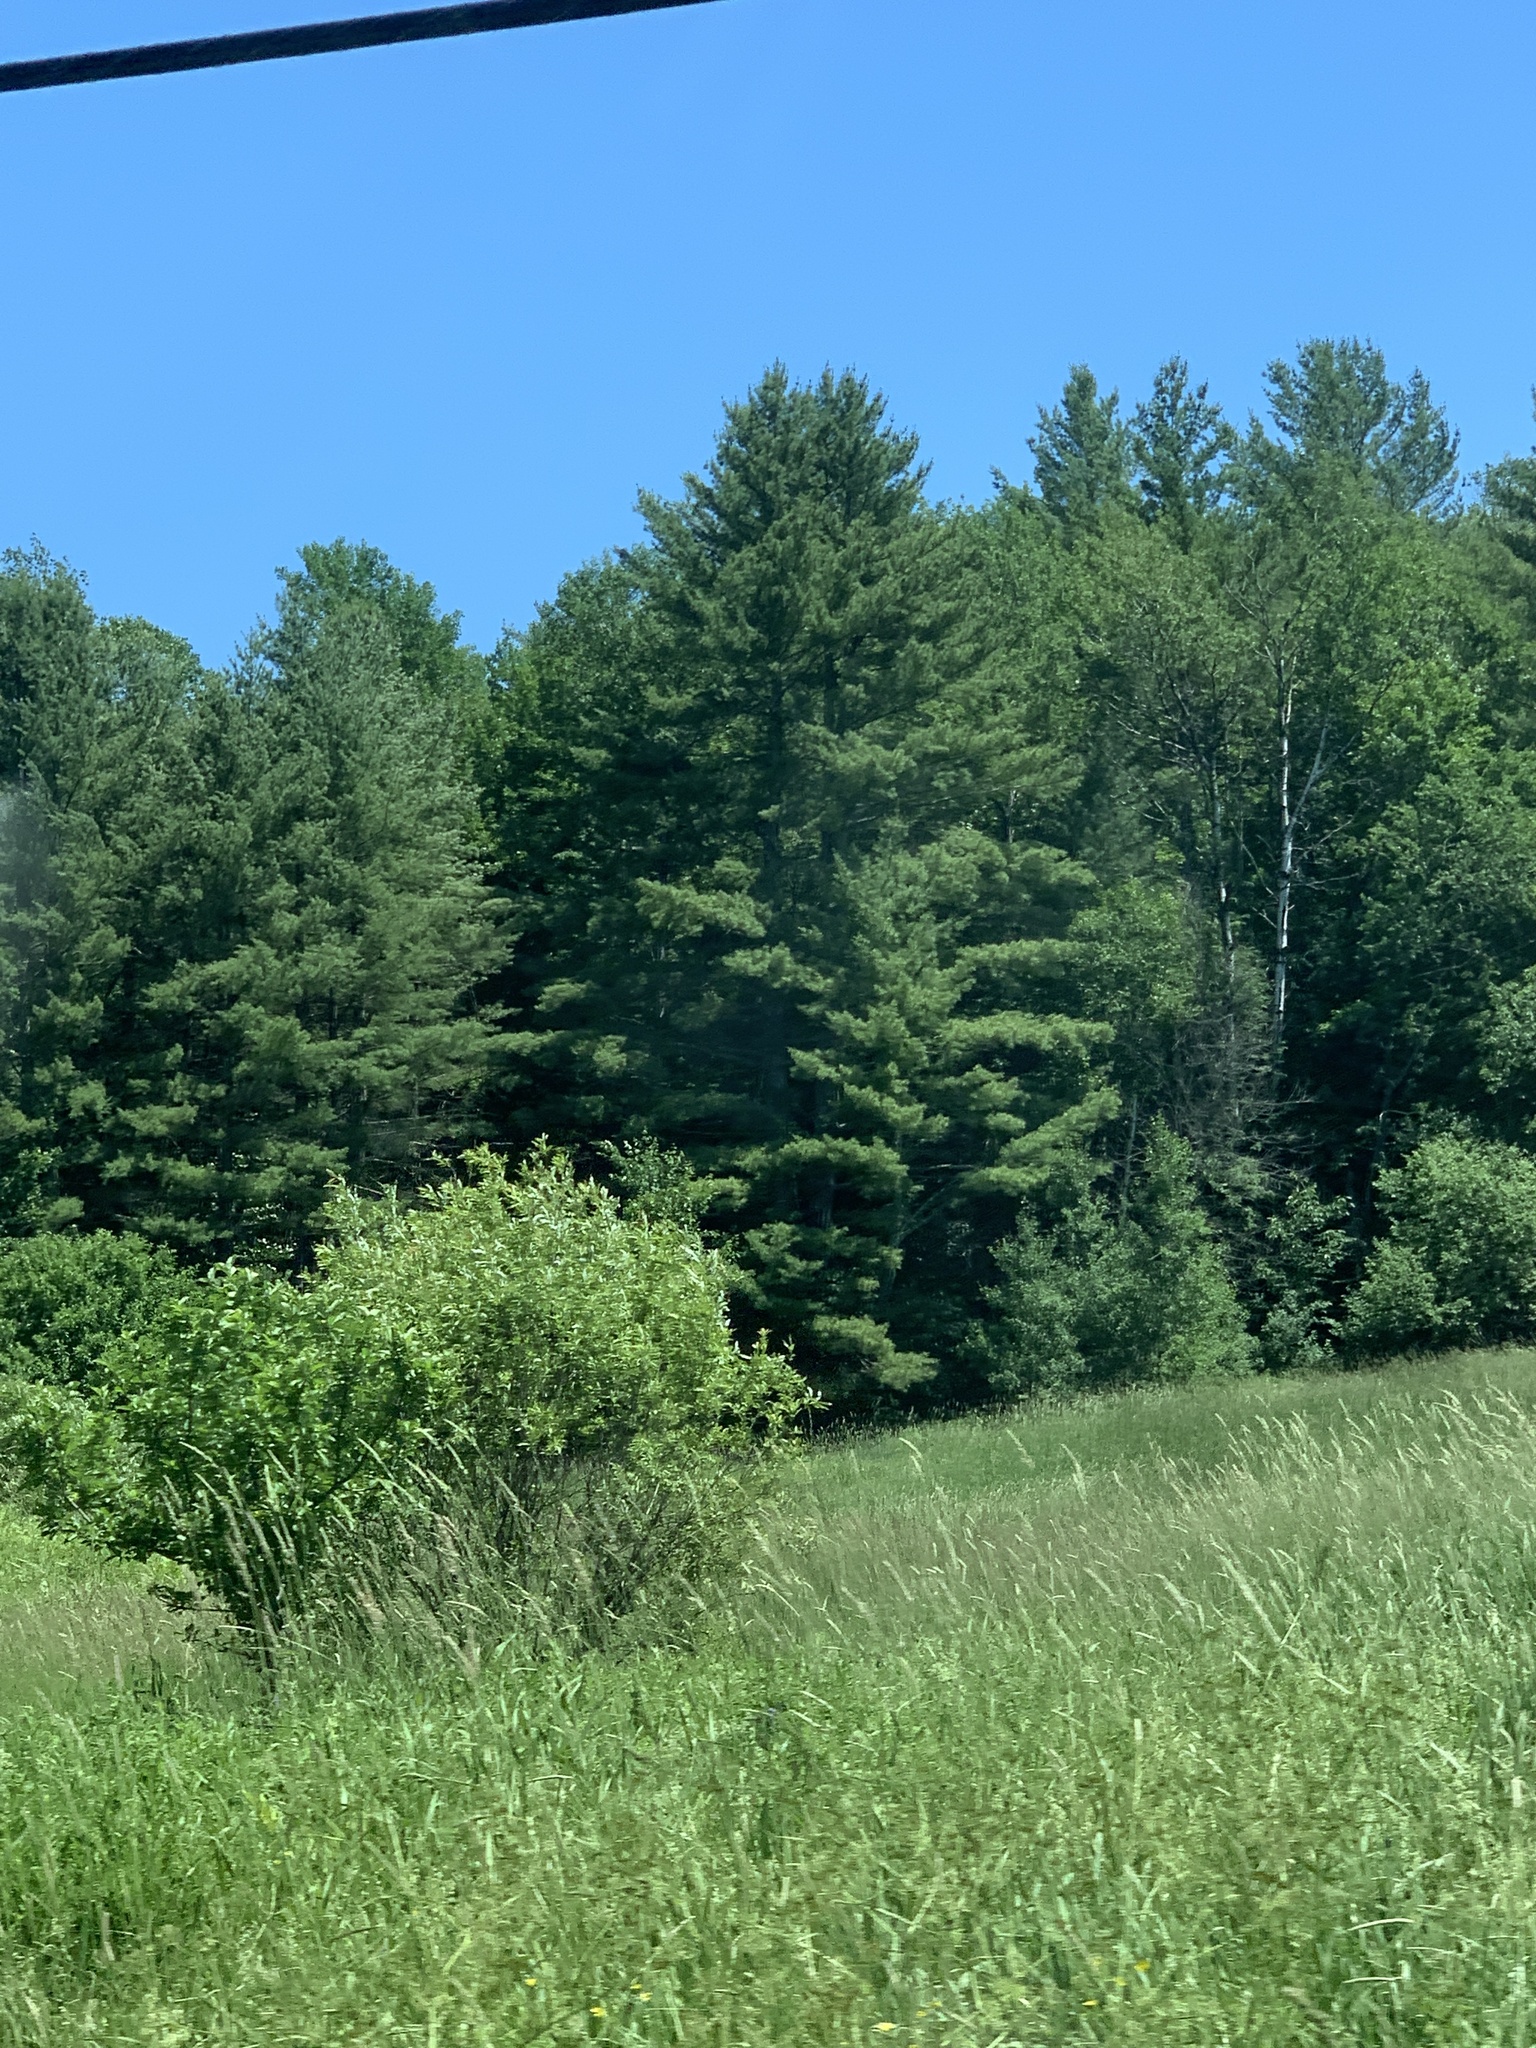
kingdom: Plantae
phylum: Tracheophyta
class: Pinopsida
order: Pinales
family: Pinaceae
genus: Pinus
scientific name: Pinus strobus
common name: Weymouth pine
